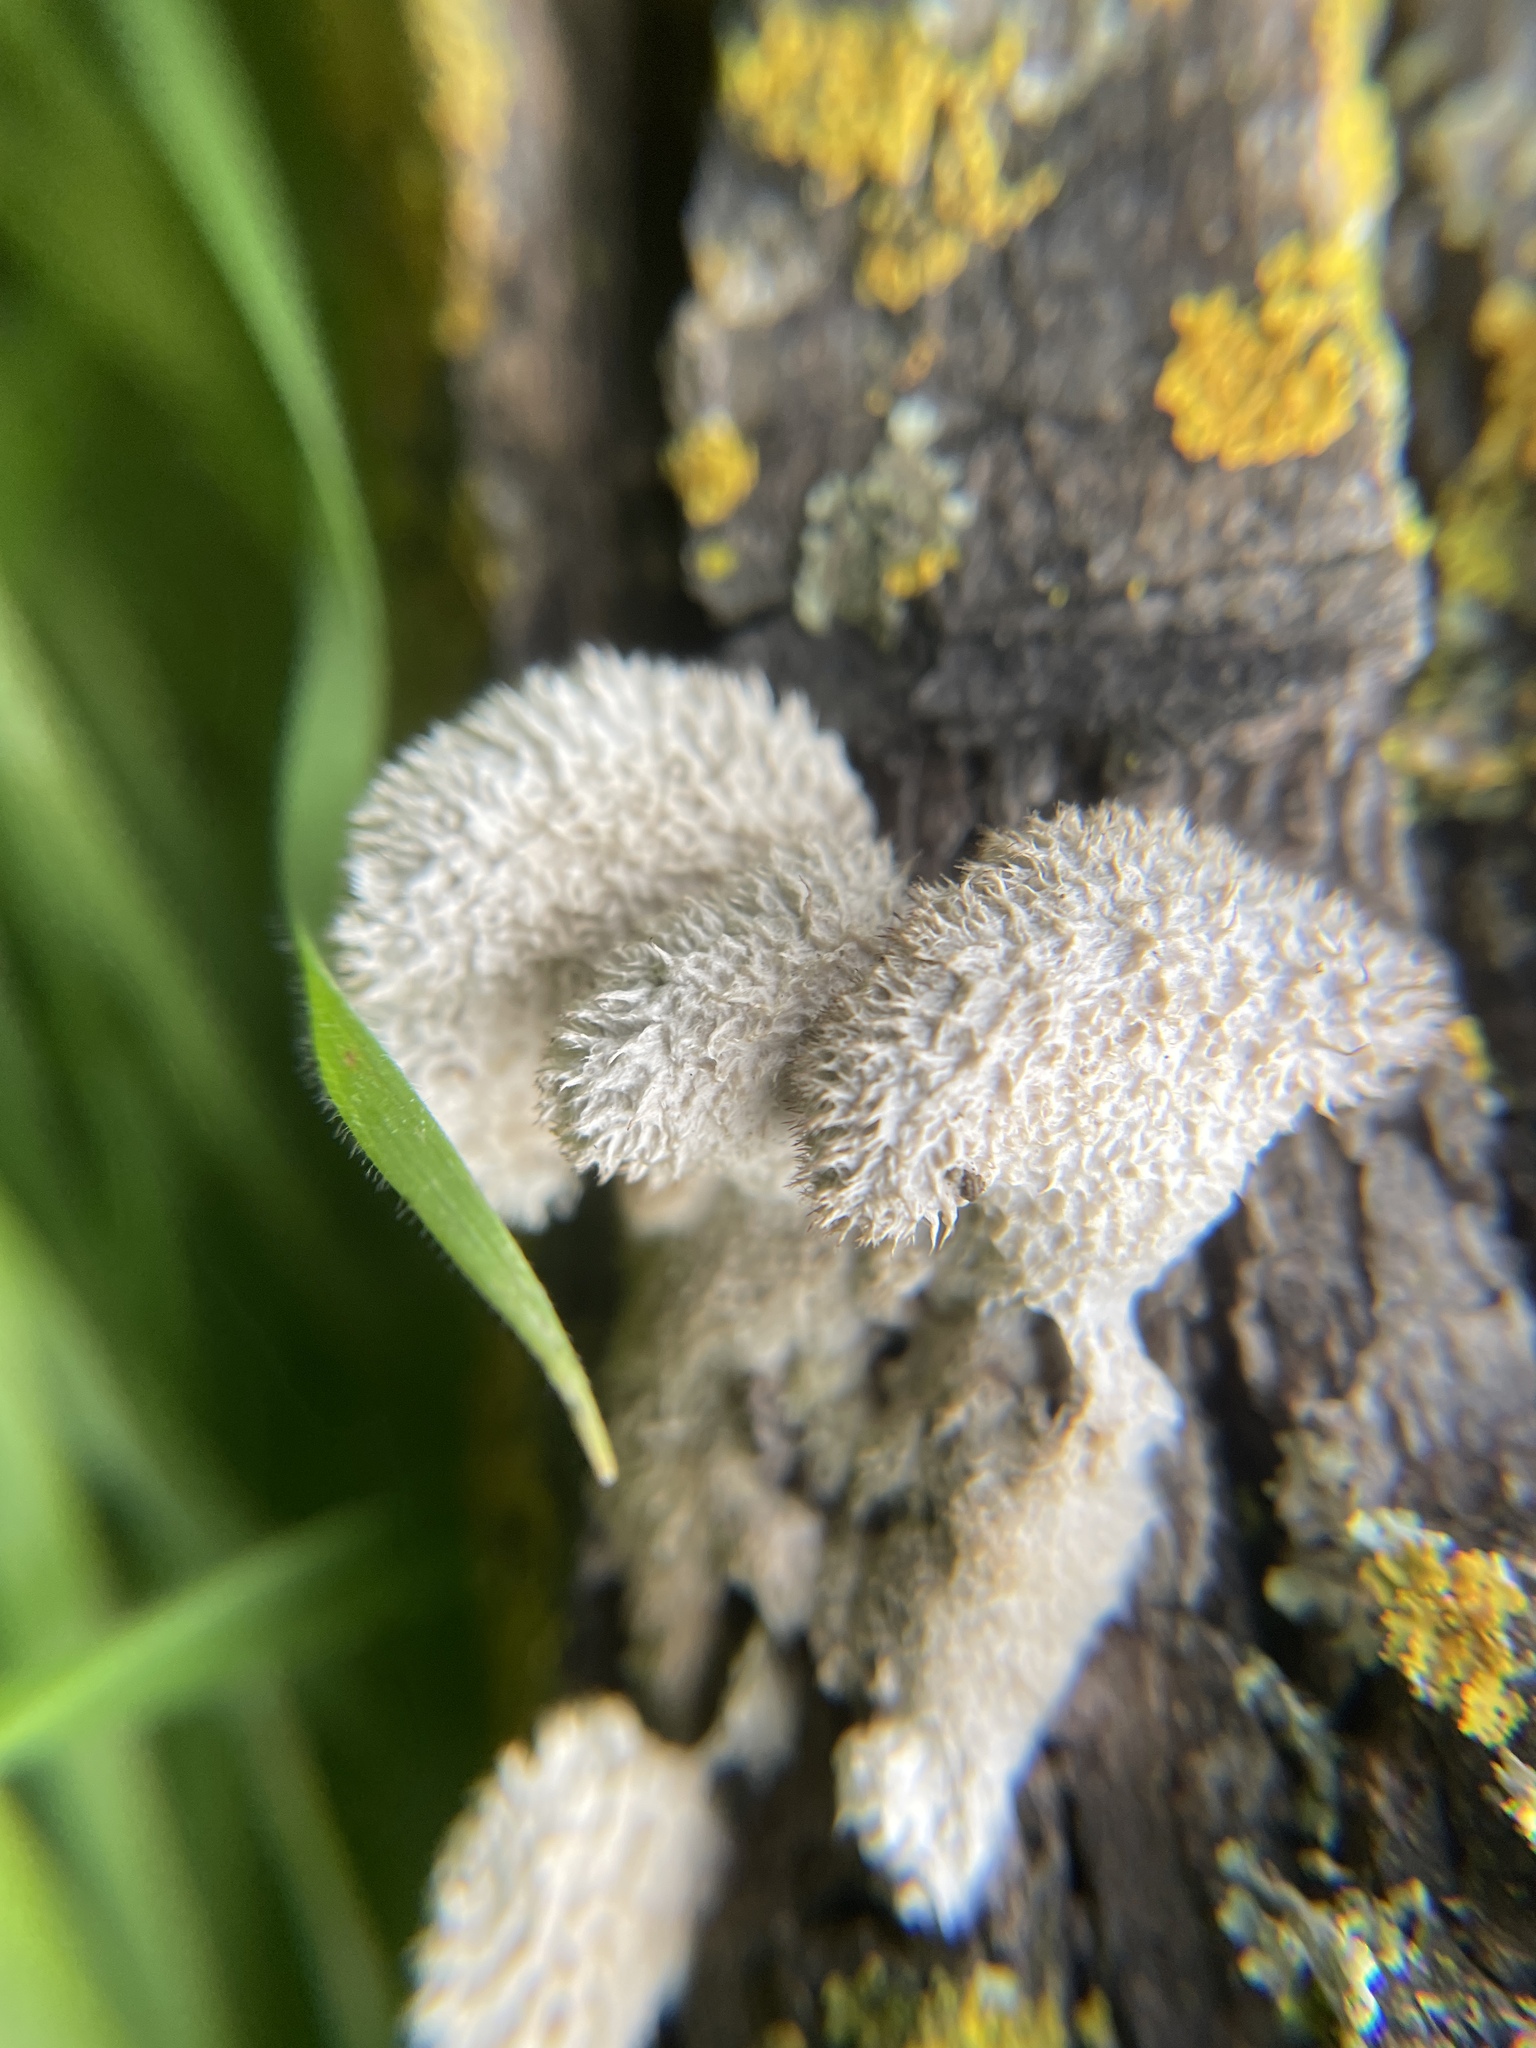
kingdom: Fungi
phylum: Basidiomycota
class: Agaricomycetes
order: Agaricales
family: Schizophyllaceae
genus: Schizophyllum
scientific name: Schizophyllum commune
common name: Common porecrust
